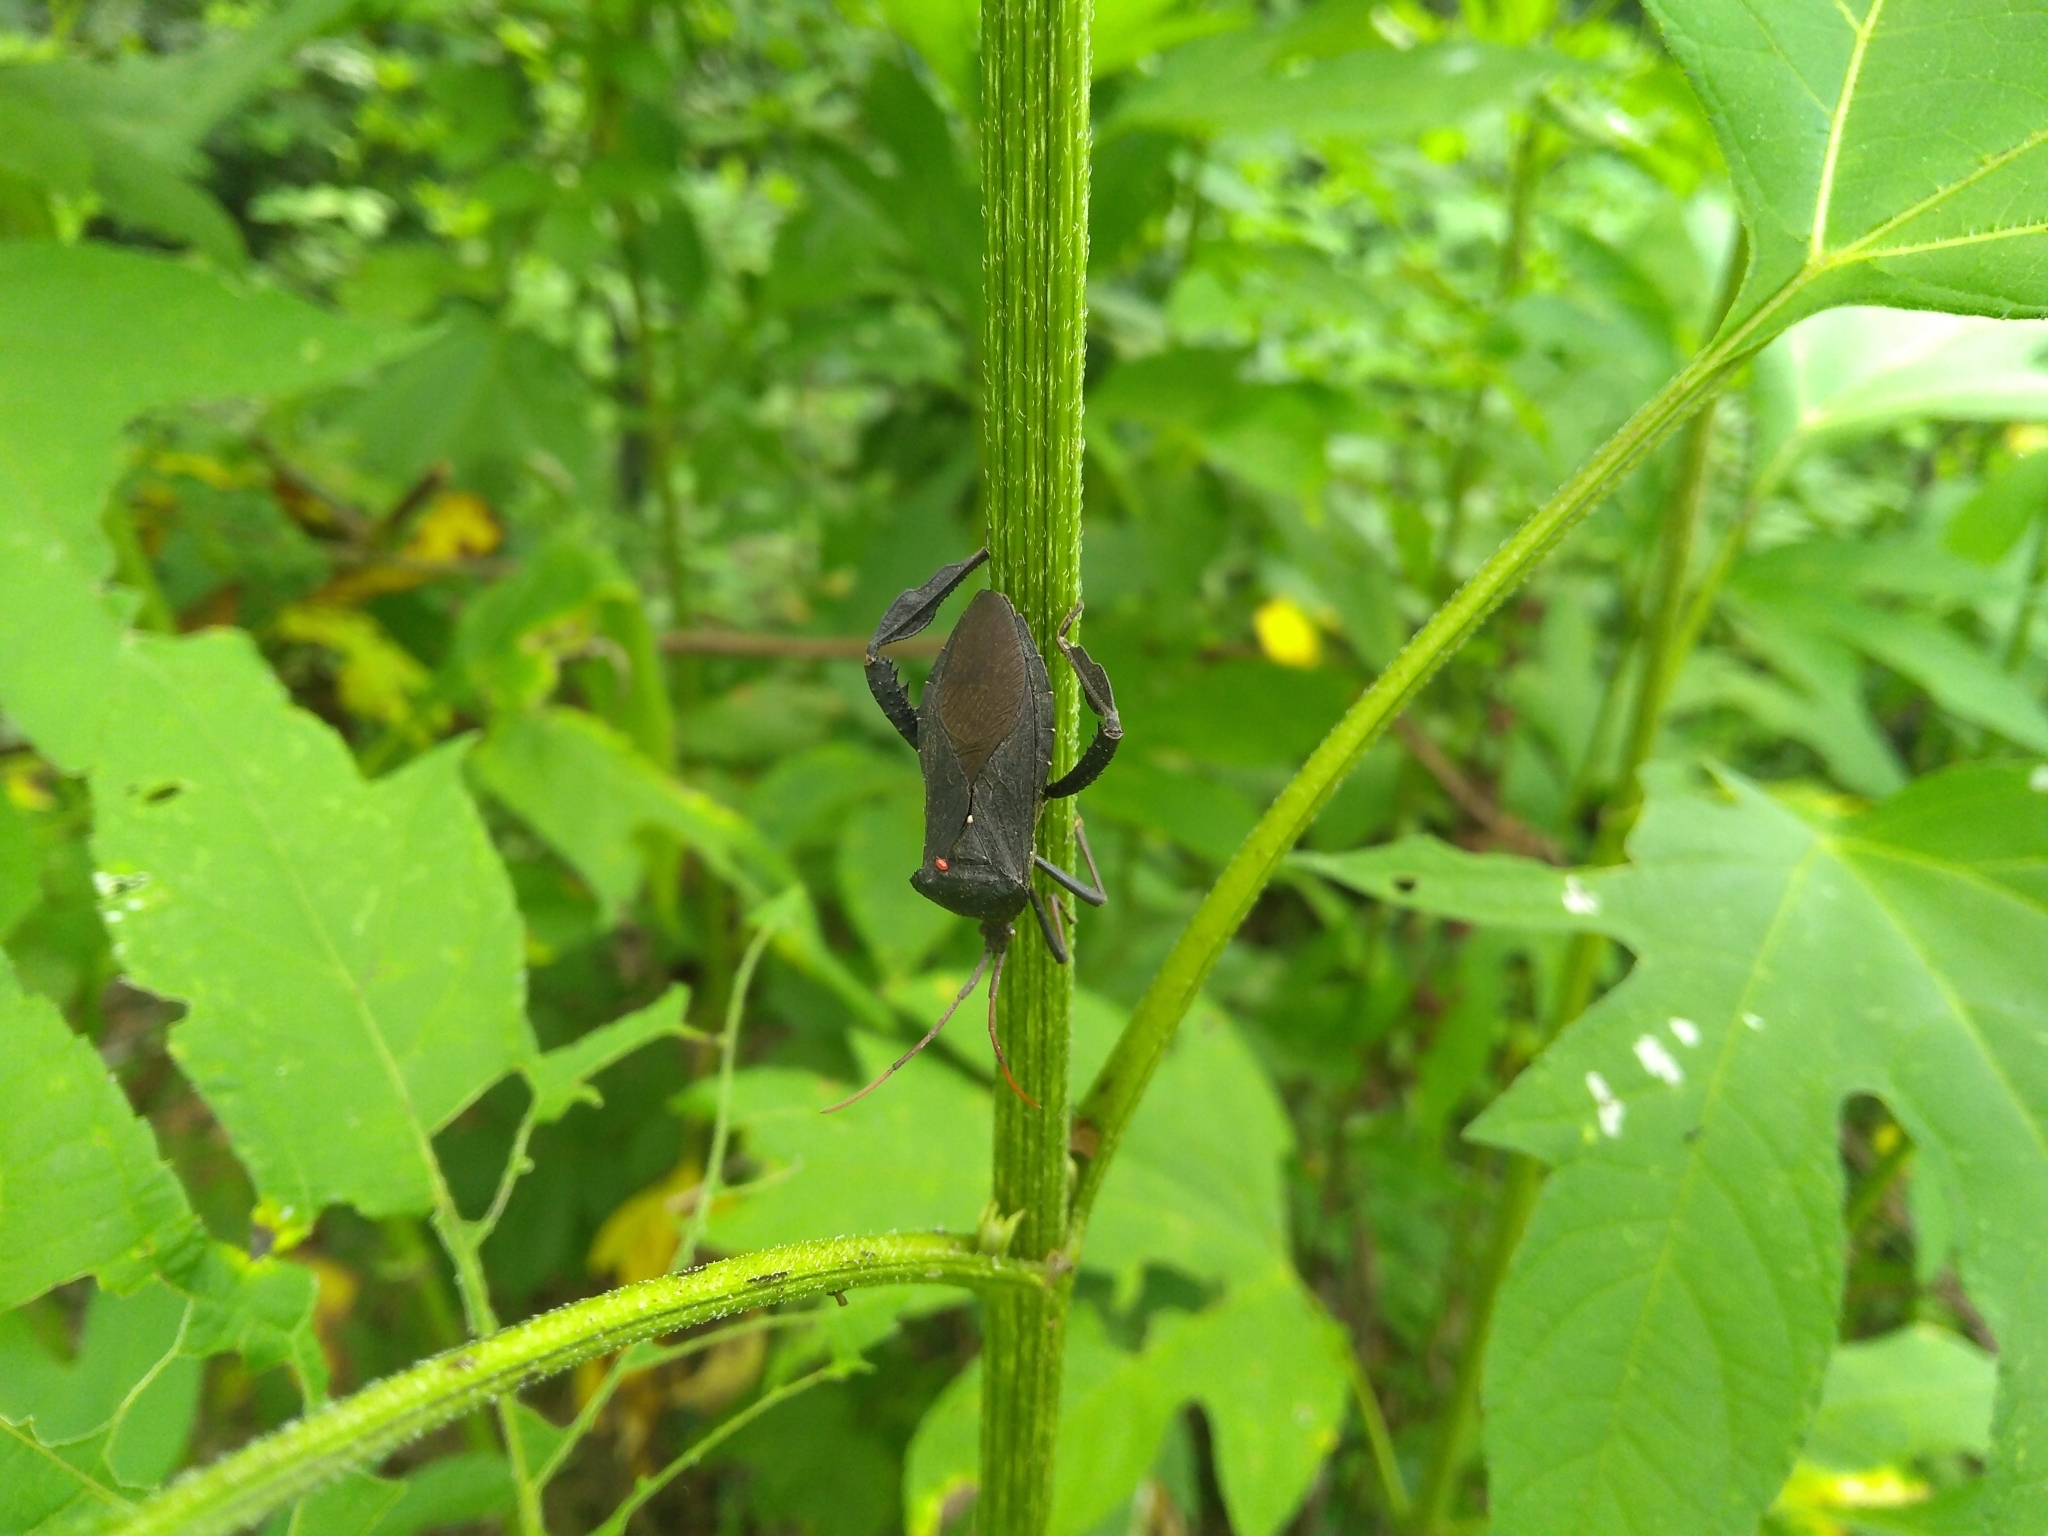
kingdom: Animalia
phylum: Arthropoda
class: Insecta
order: Hemiptera
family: Coreidae
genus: Acanthocephala
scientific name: Acanthocephala femorata
